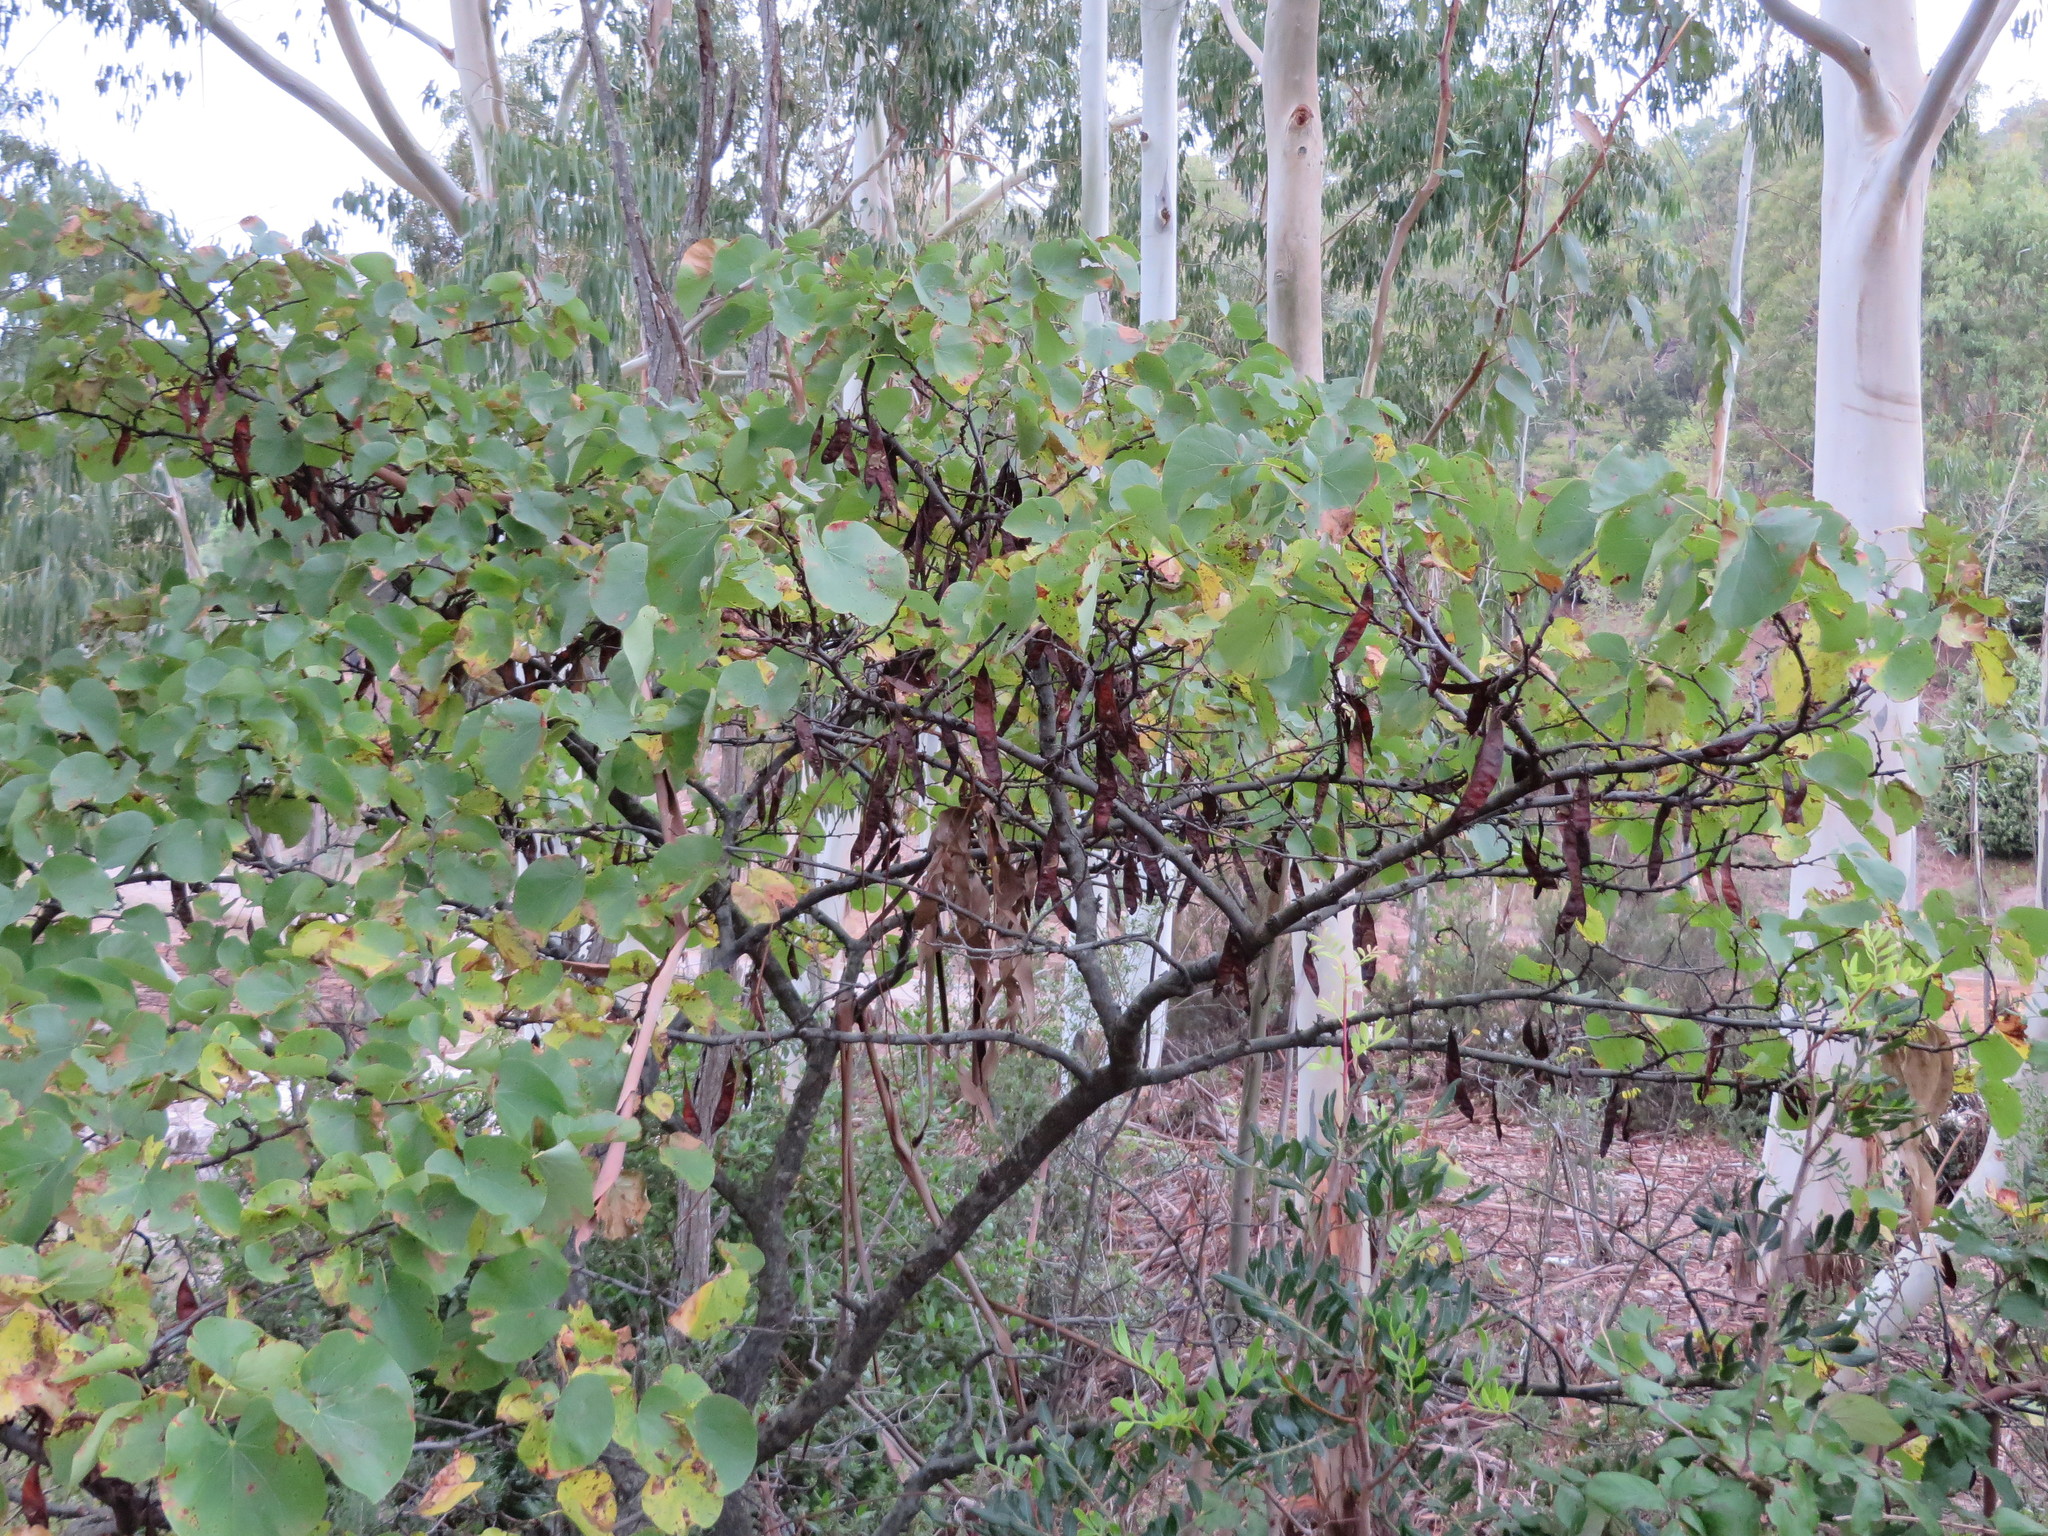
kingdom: Plantae
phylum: Tracheophyta
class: Magnoliopsida
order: Fabales
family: Fabaceae
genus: Cercis
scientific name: Cercis siliquastrum
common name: Judas tree
